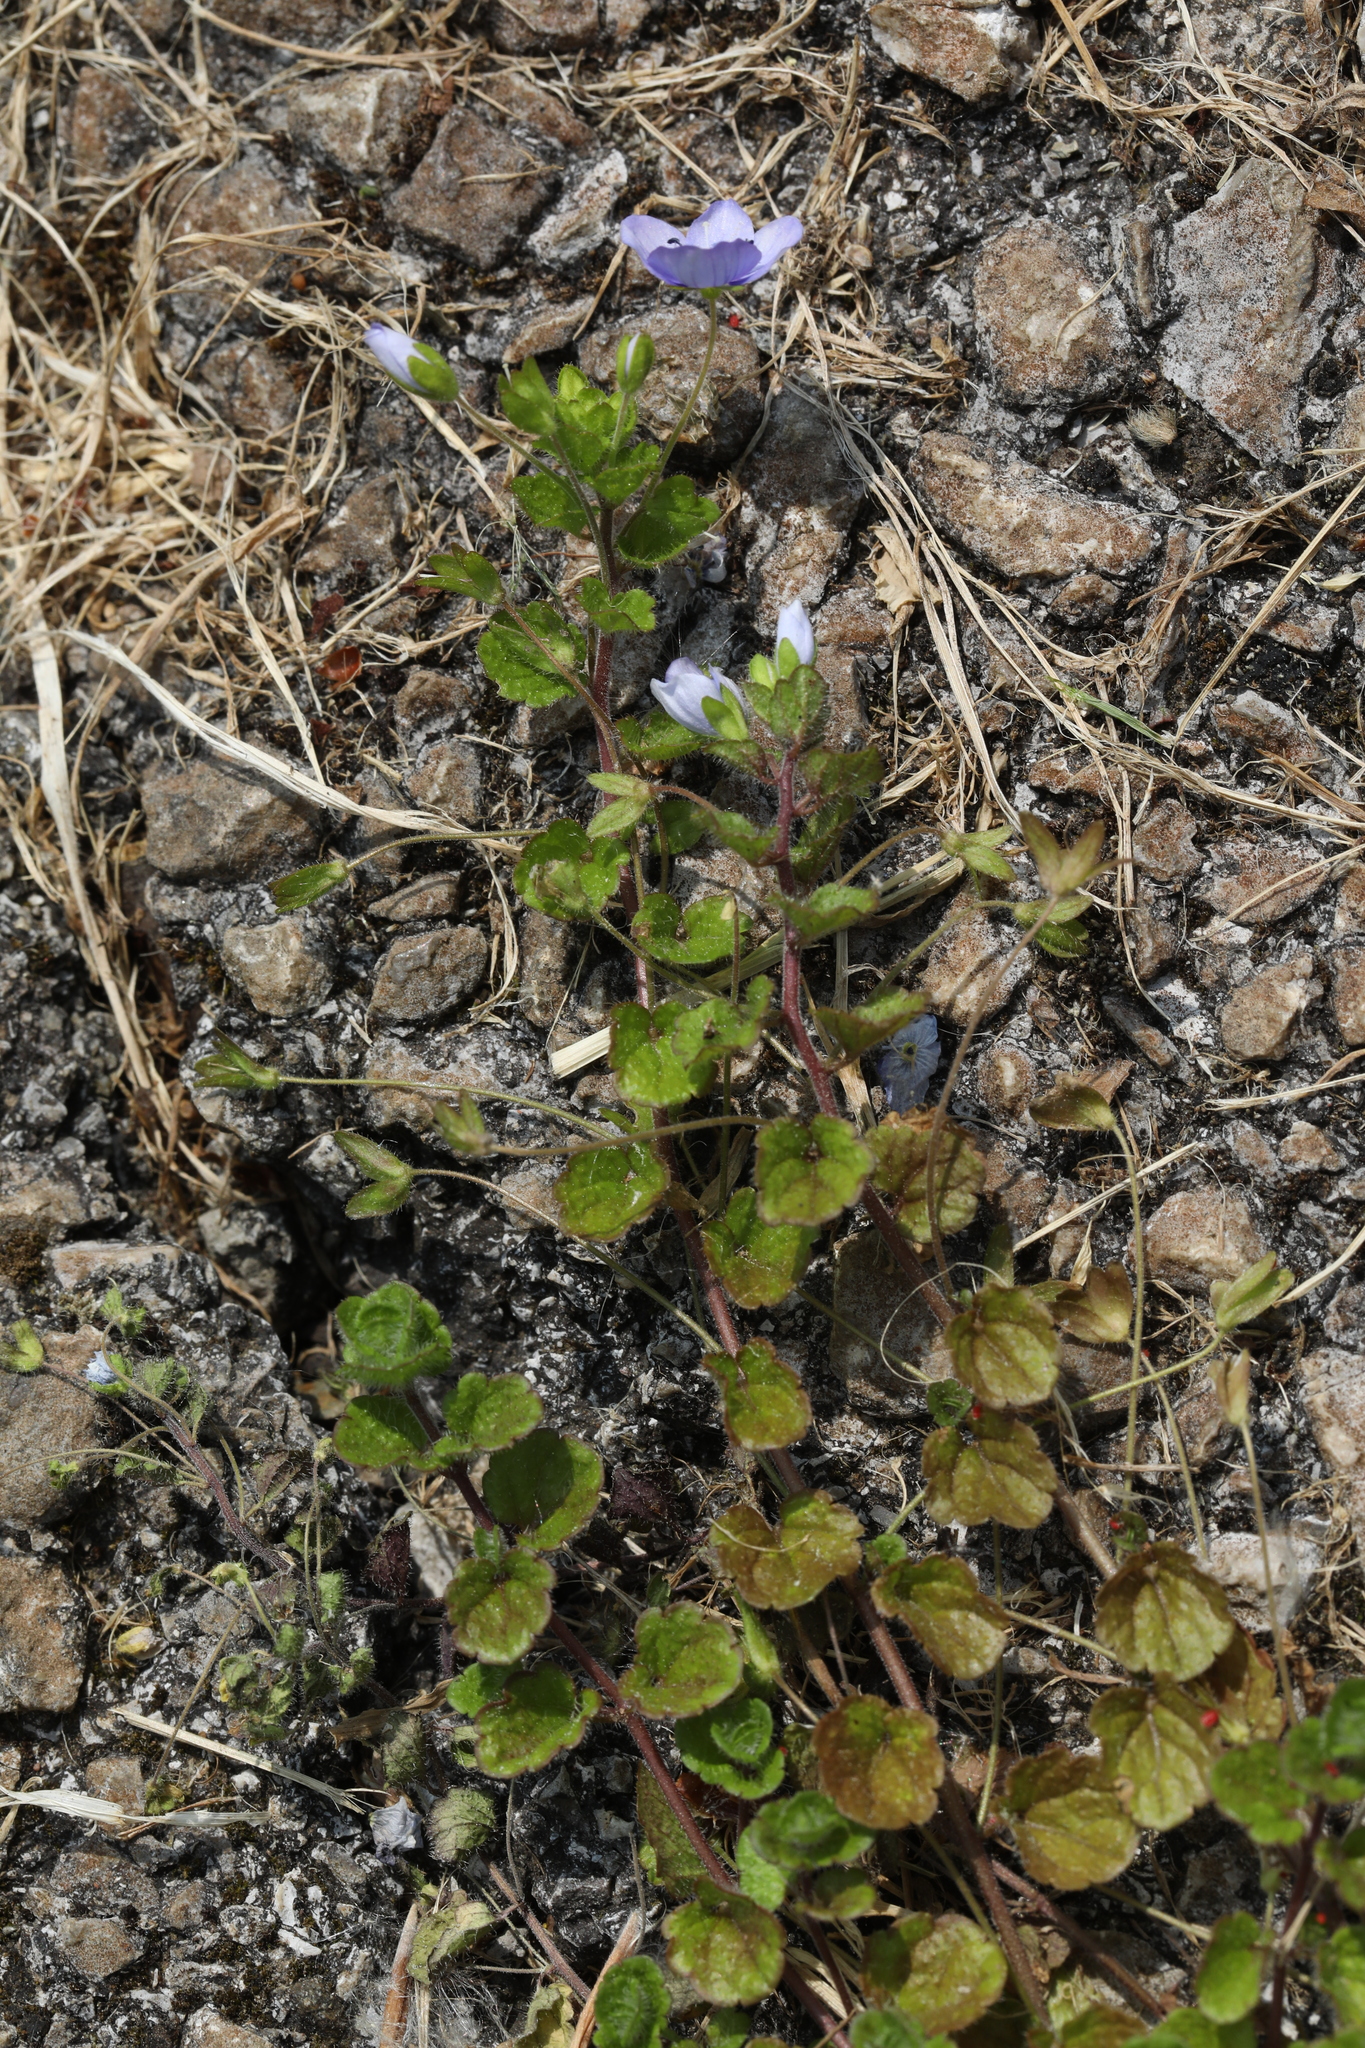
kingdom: Plantae
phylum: Tracheophyta
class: Magnoliopsida
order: Lamiales
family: Plantaginaceae
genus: Veronica
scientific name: Veronica persica
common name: Common field-speedwell
